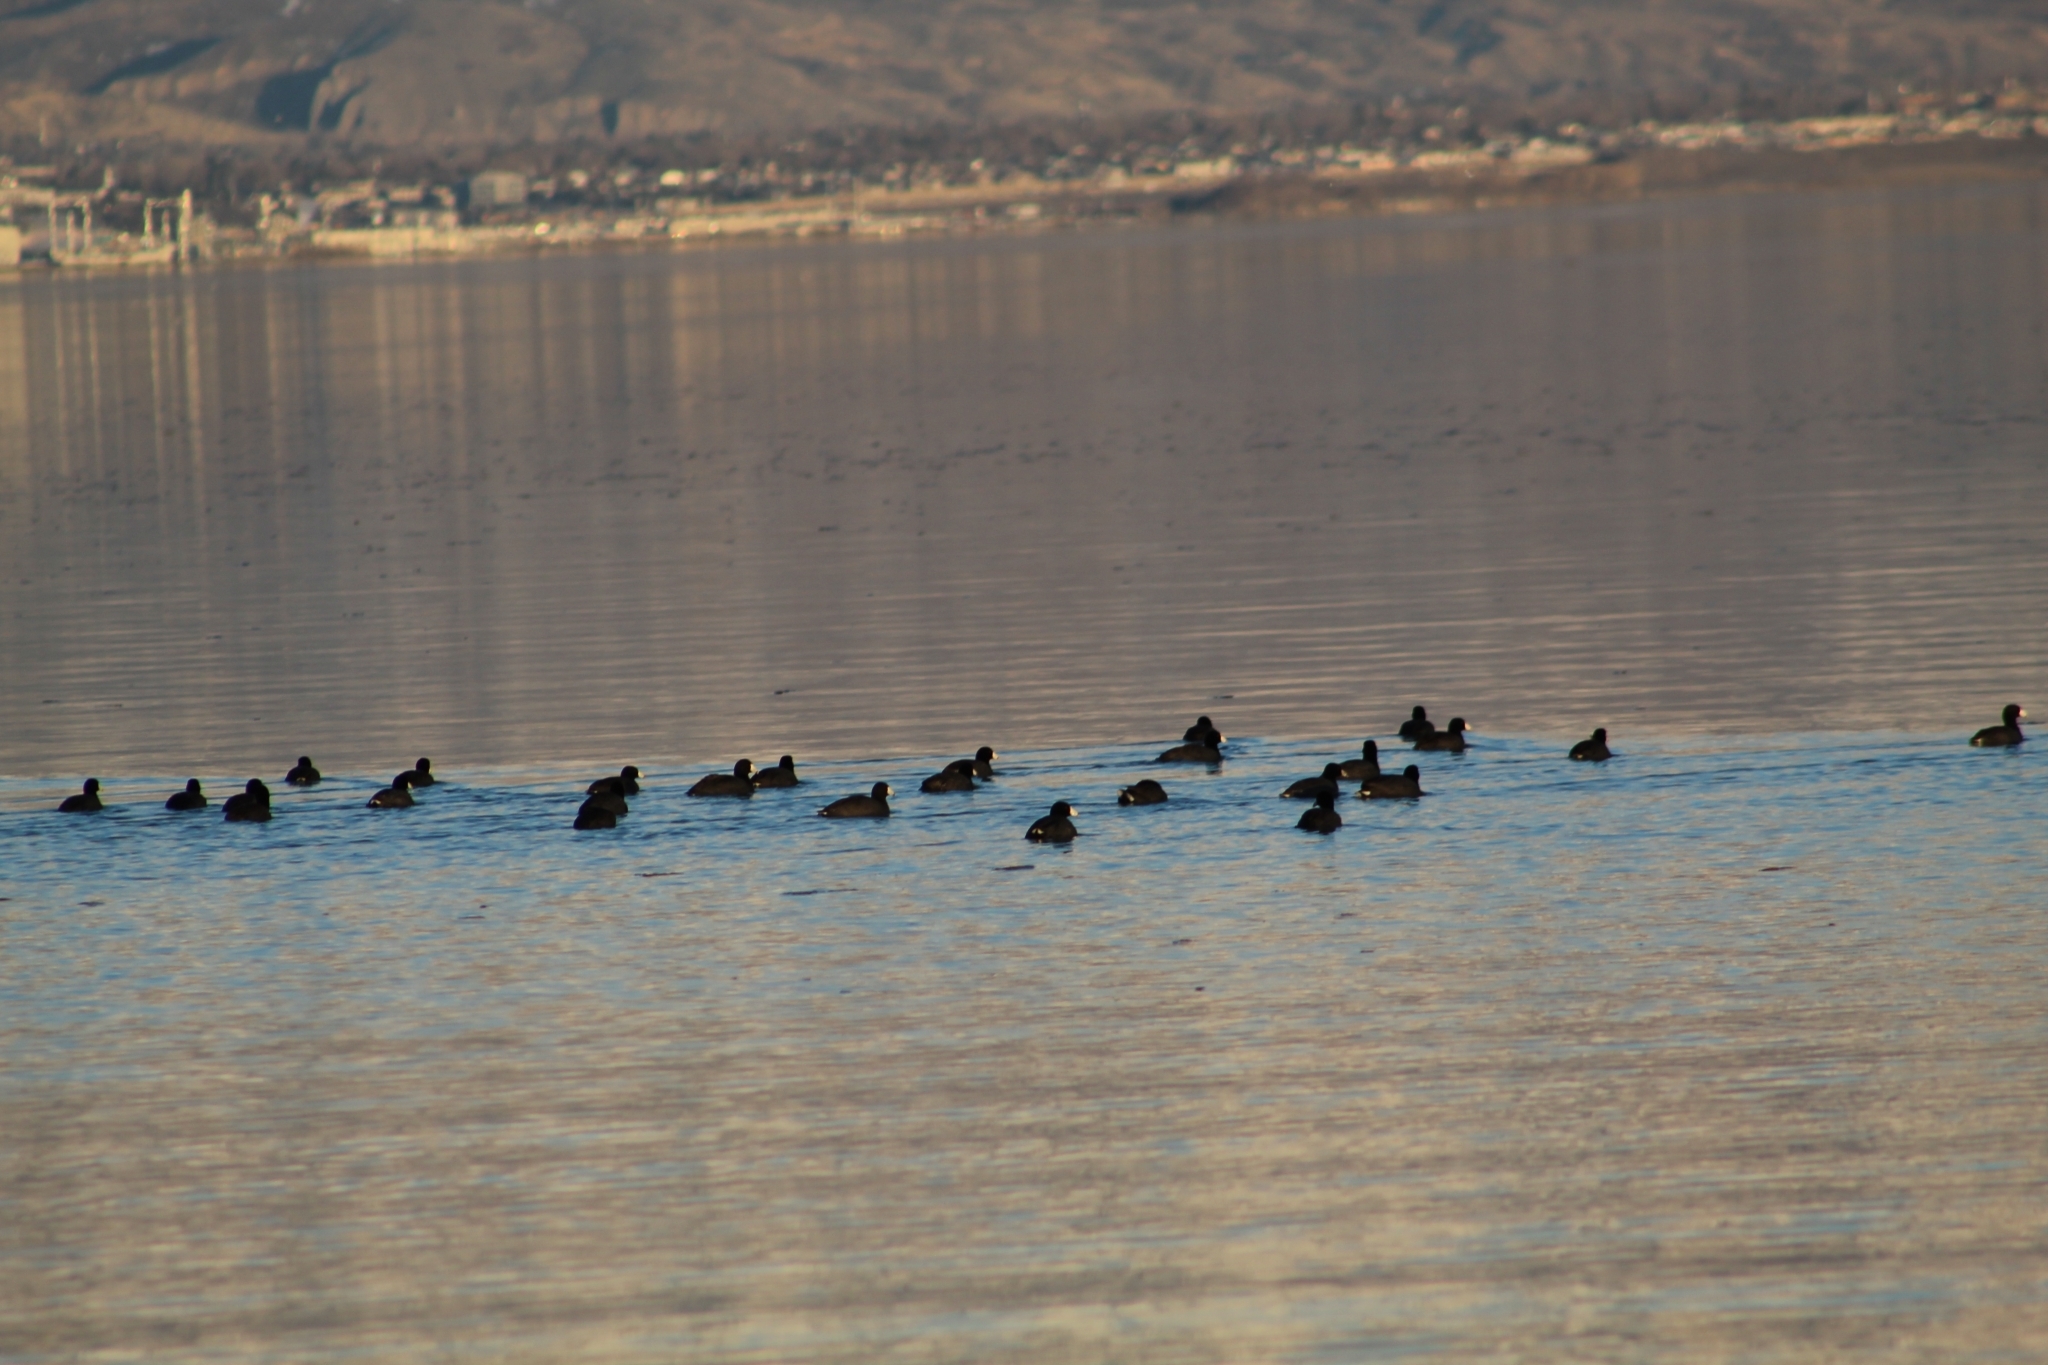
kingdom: Animalia
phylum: Chordata
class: Aves
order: Gruiformes
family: Rallidae
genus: Fulica
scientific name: Fulica americana
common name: American coot
